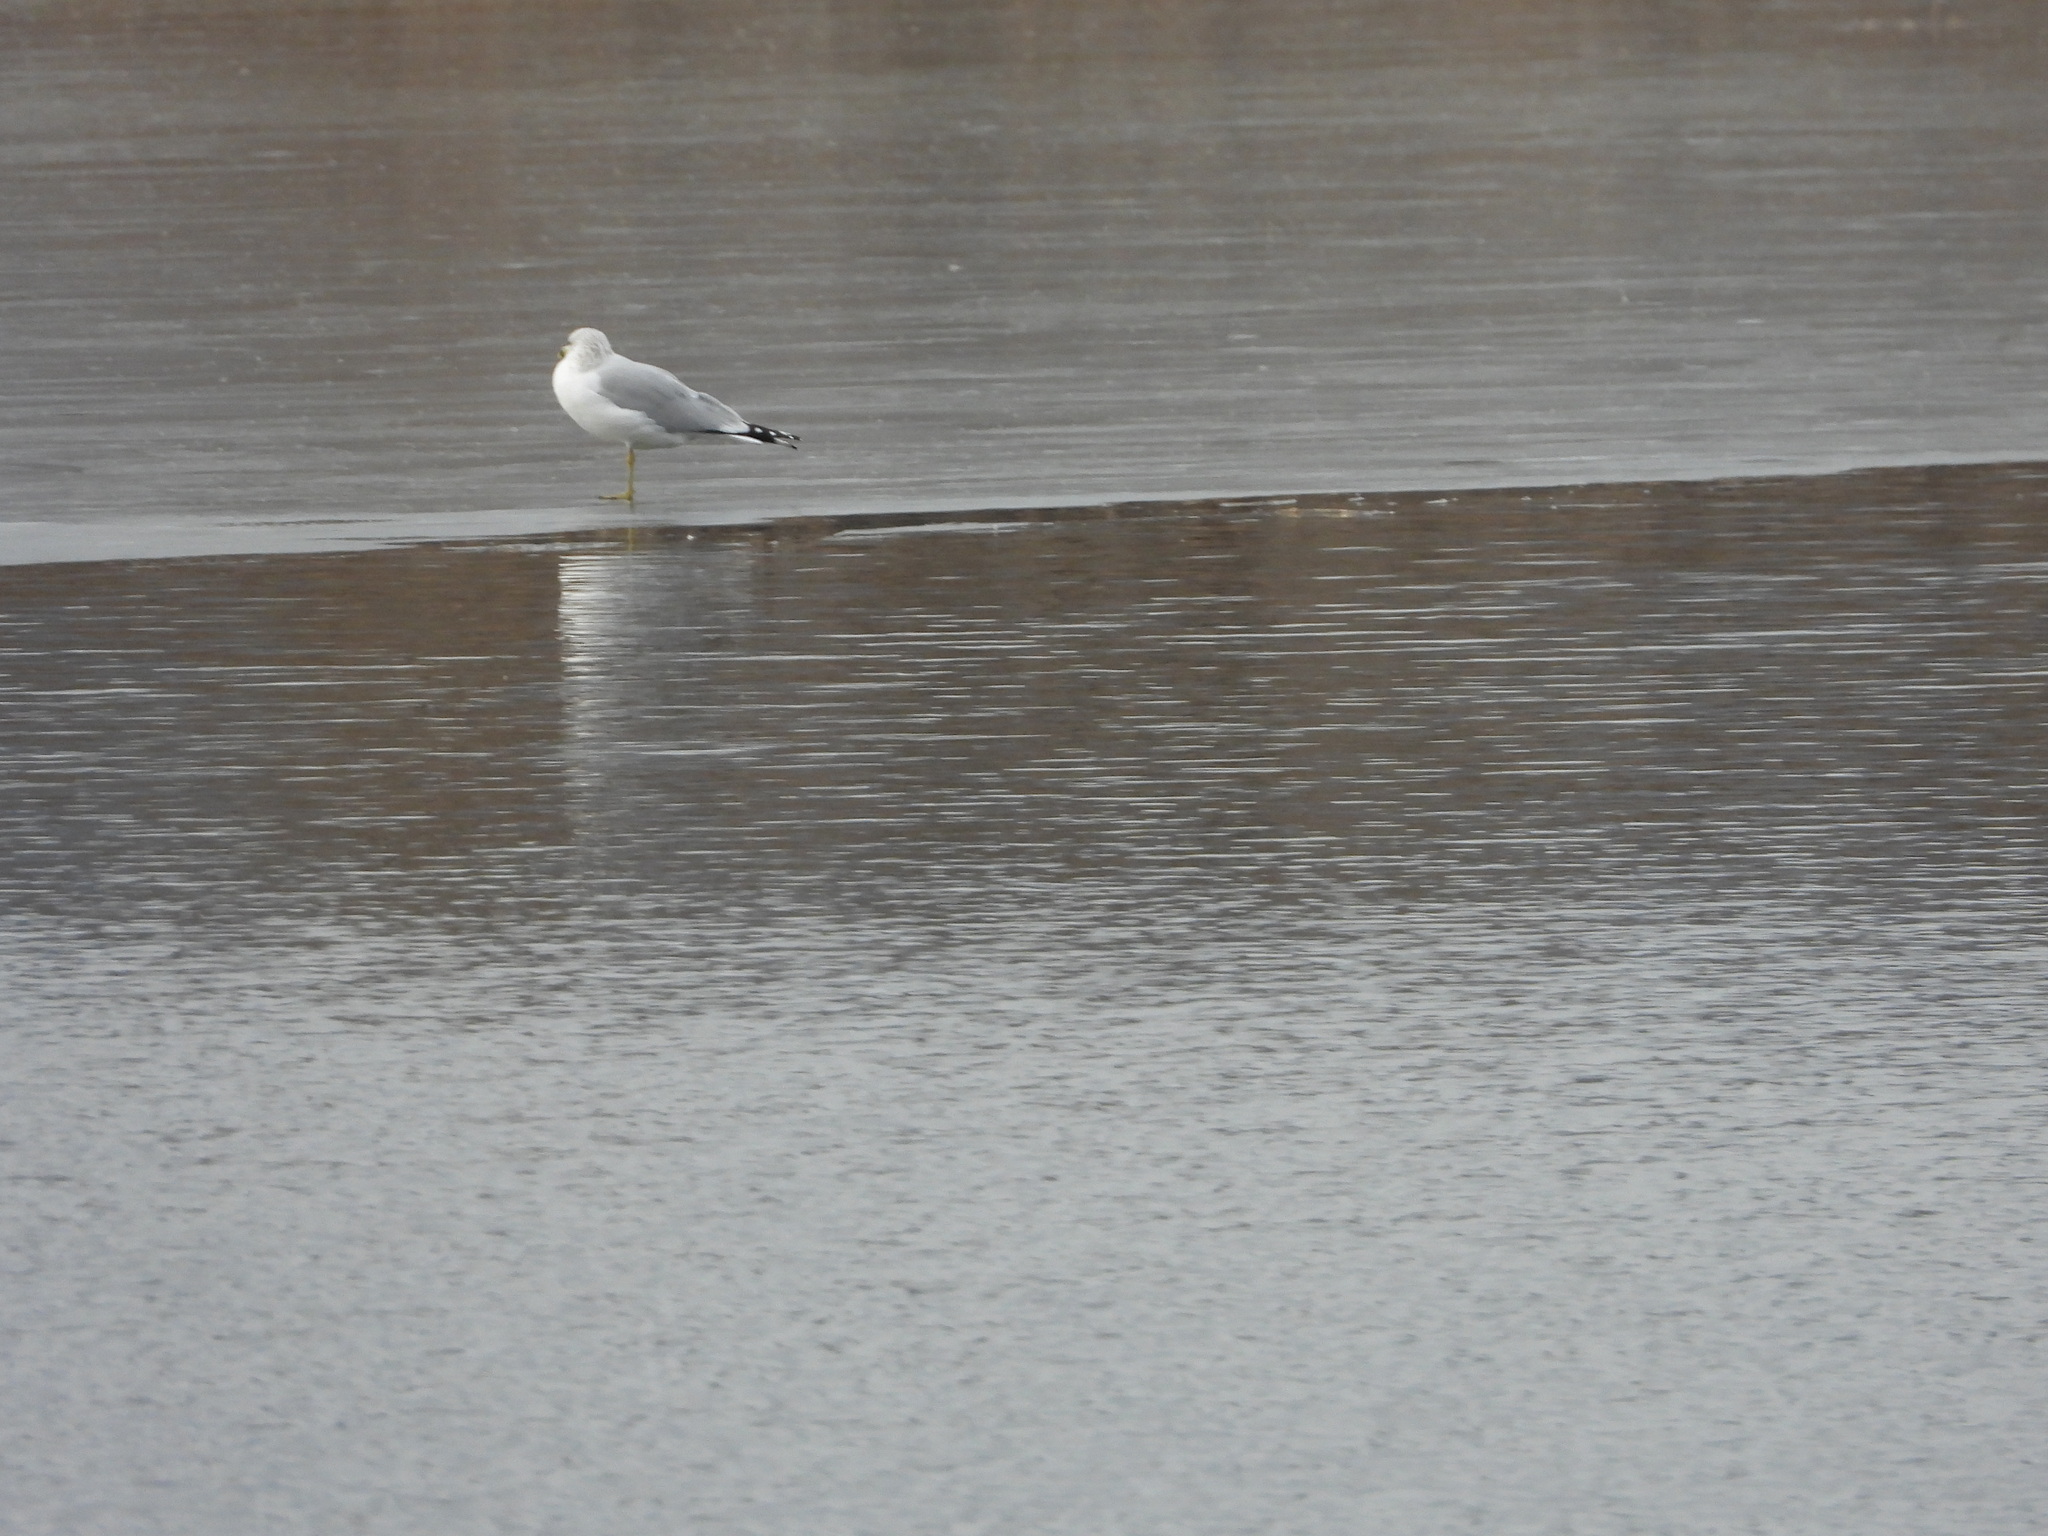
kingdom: Animalia
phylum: Chordata
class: Aves
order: Charadriiformes
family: Laridae
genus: Larus
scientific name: Larus delawarensis
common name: Ring-billed gull
